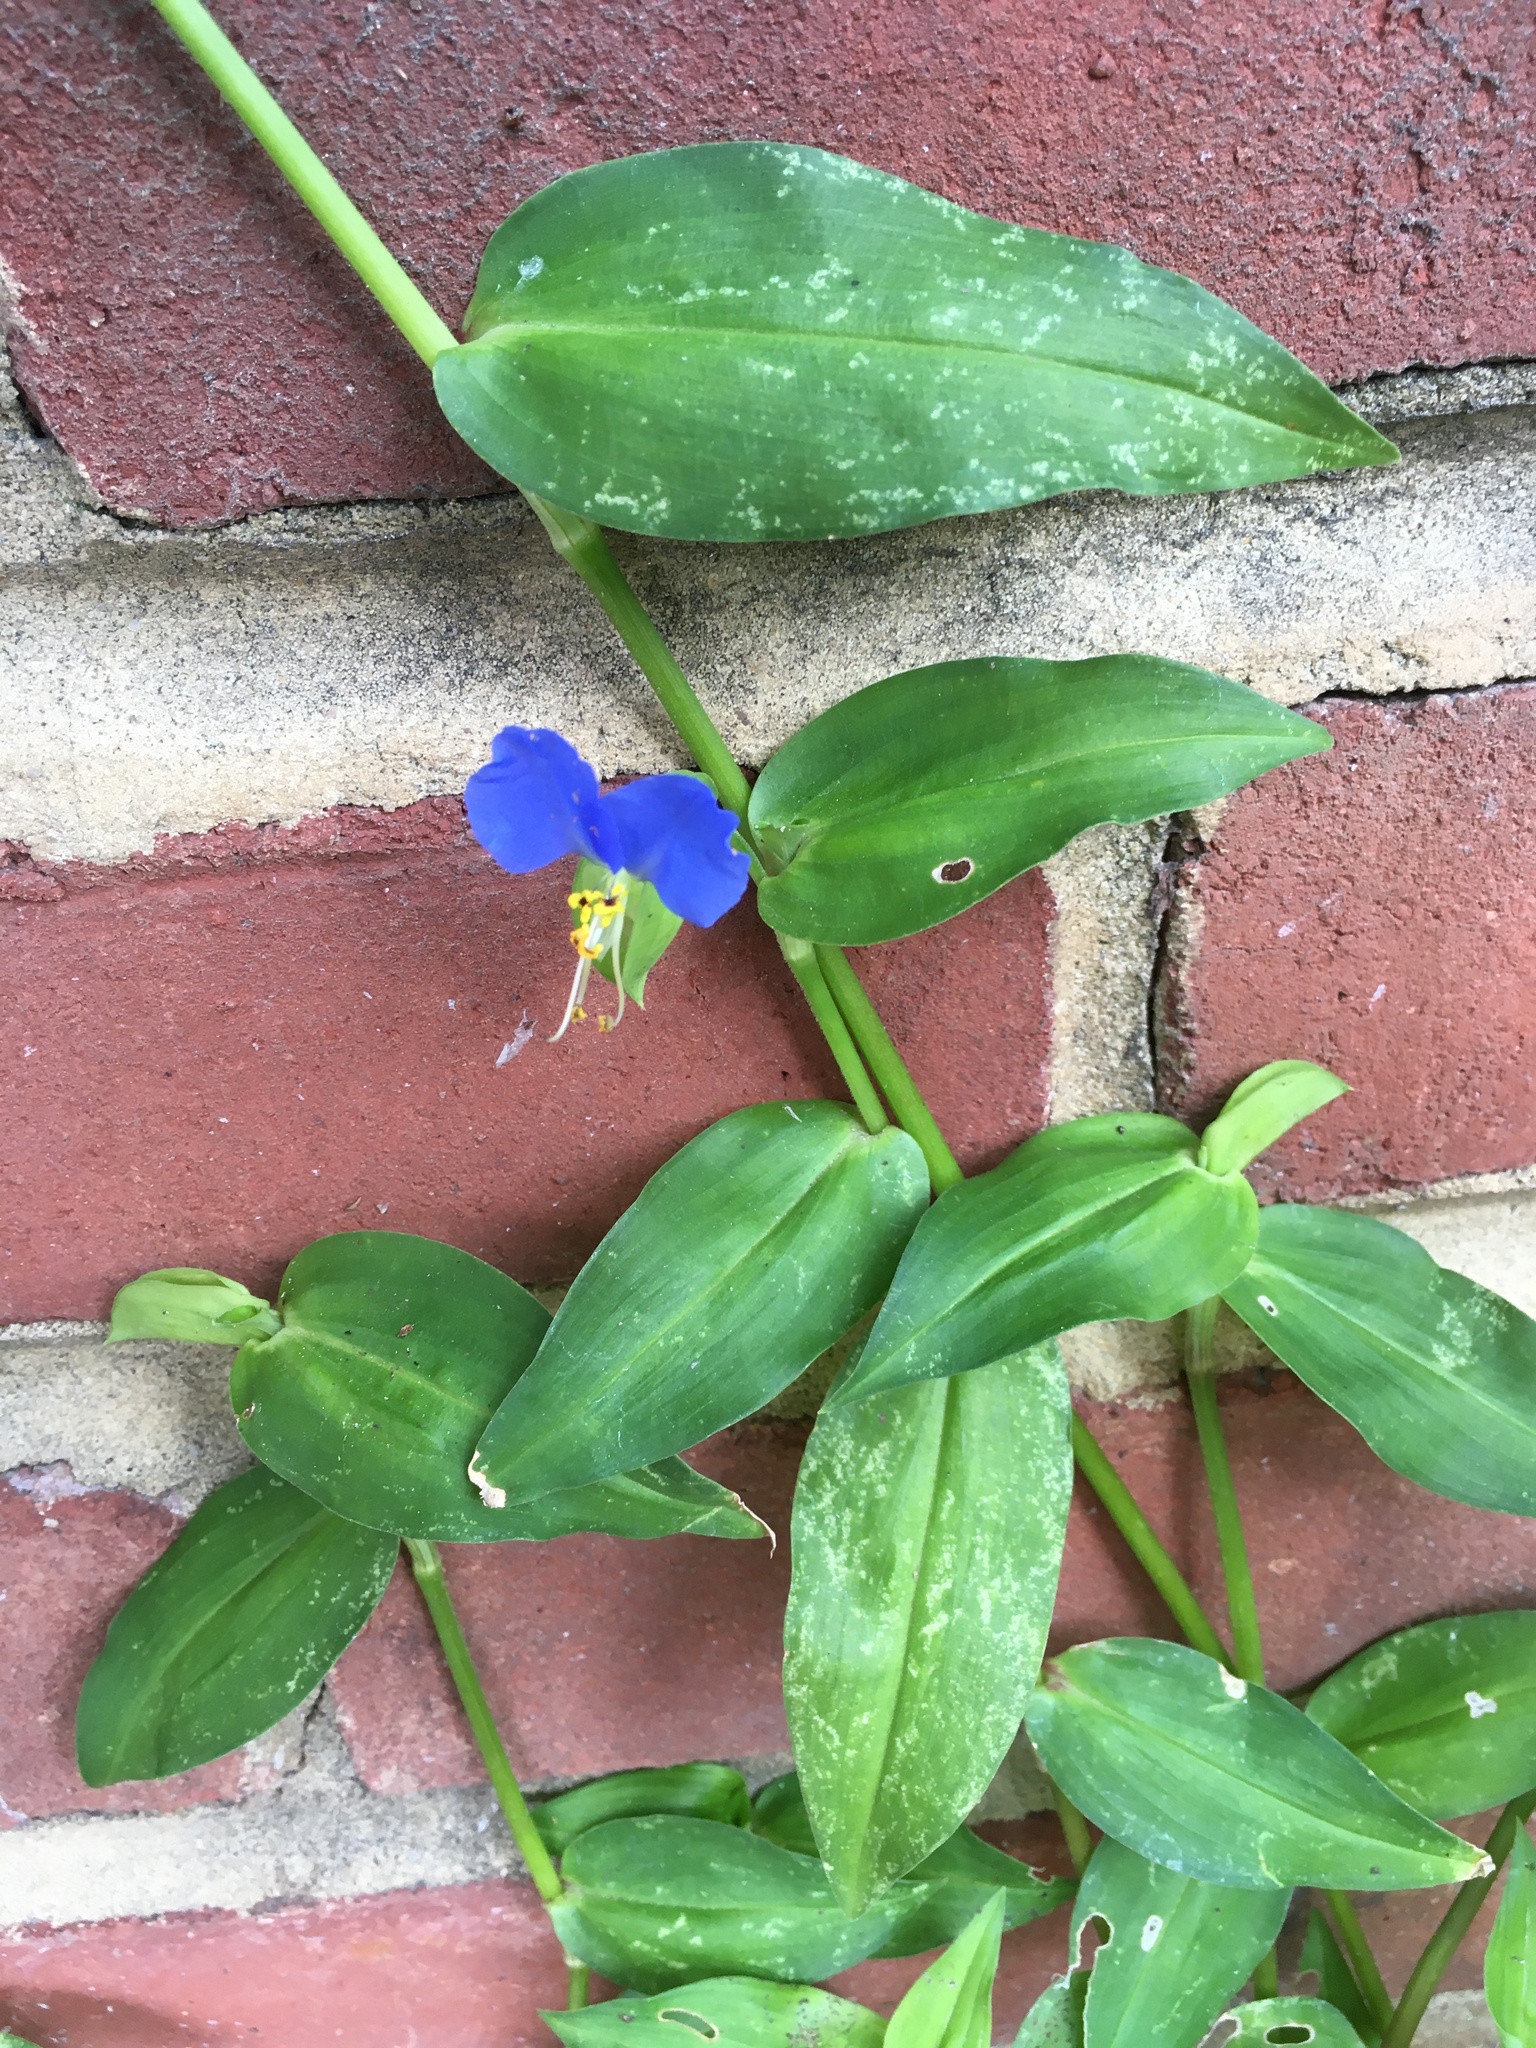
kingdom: Plantae
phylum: Tracheophyta
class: Liliopsida
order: Commelinales
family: Commelinaceae
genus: Commelina
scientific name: Commelina communis
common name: Asiatic dayflower
